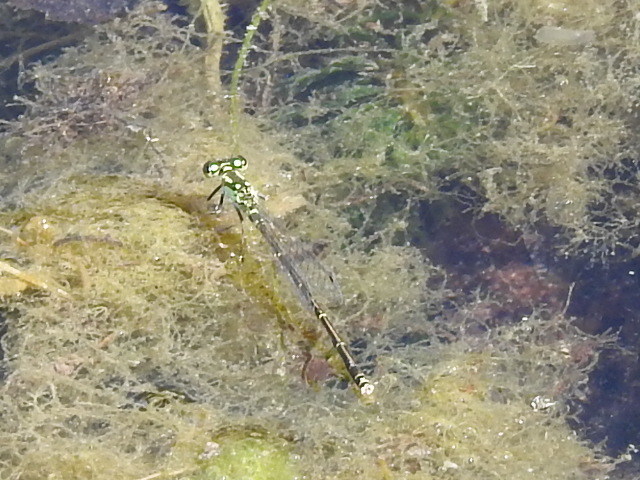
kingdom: Animalia
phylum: Arthropoda
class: Insecta
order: Odonata
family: Coenagrionidae
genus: Ischnura
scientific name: Ischnura posita
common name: Fragile forktail
